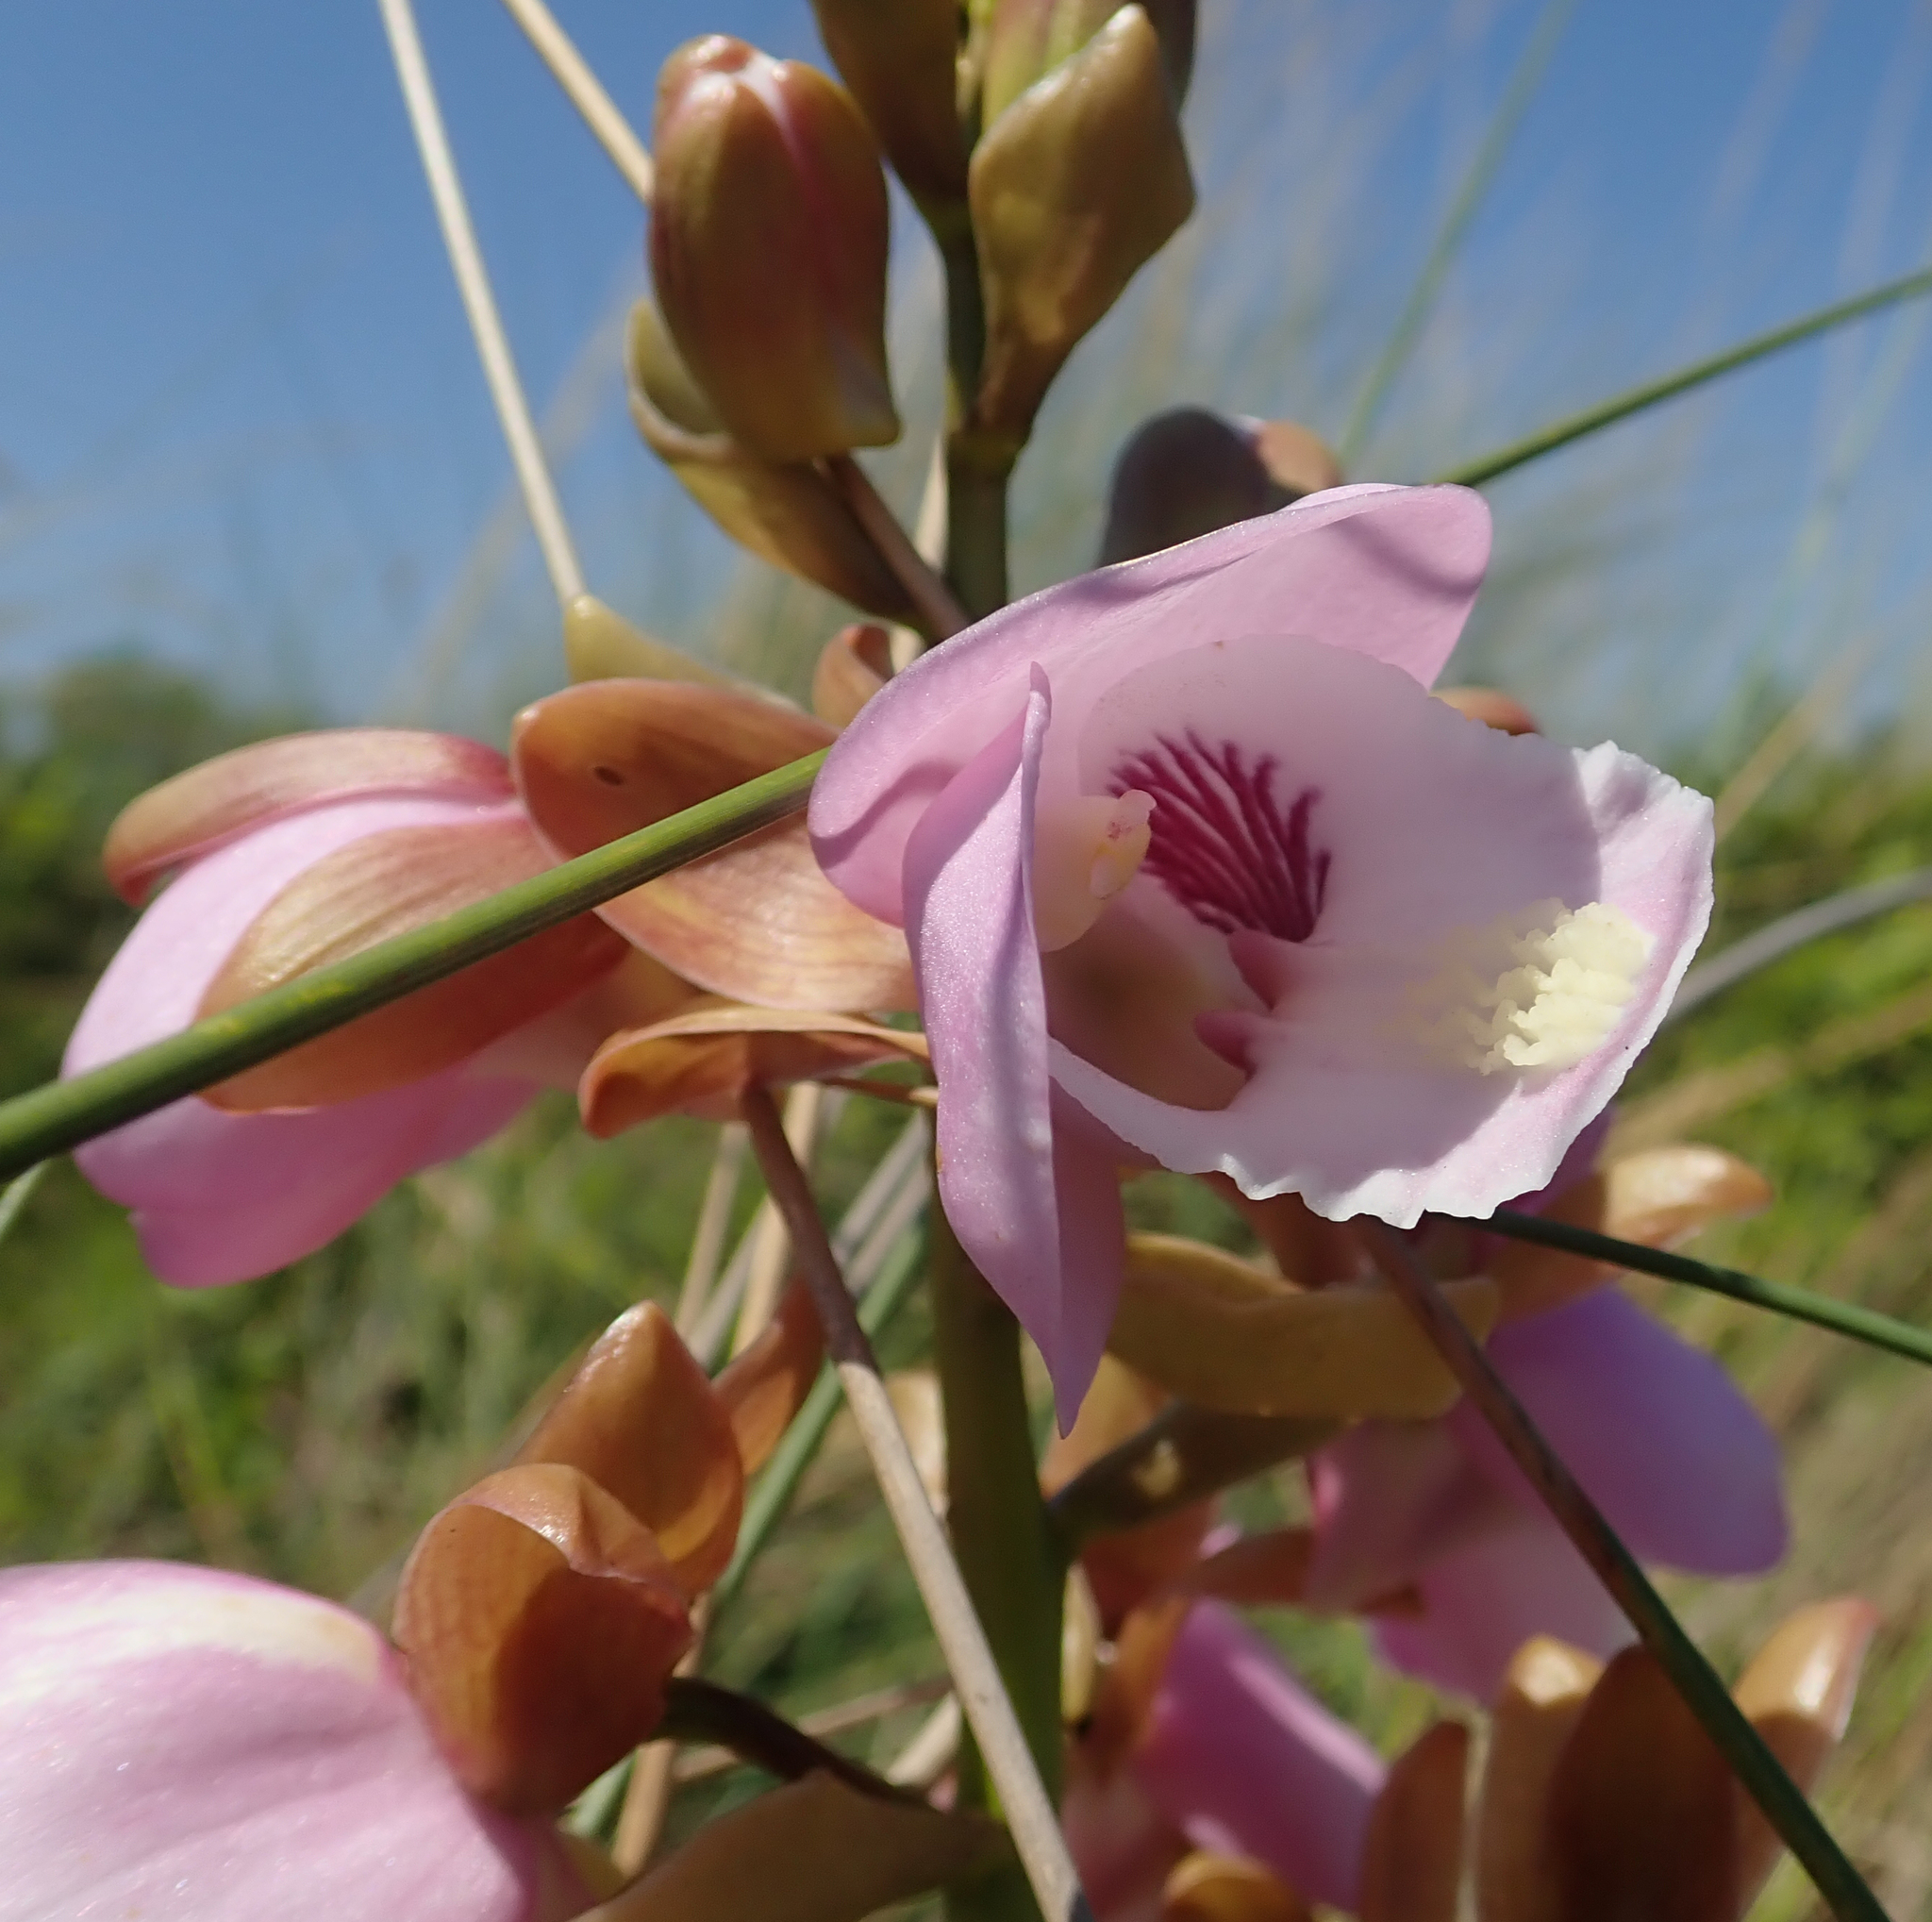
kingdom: Plantae
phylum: Tracheophyta
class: Liliopsida
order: Asparagales
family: Orchidaceae
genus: Eulophia
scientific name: Eulophia latilabris
